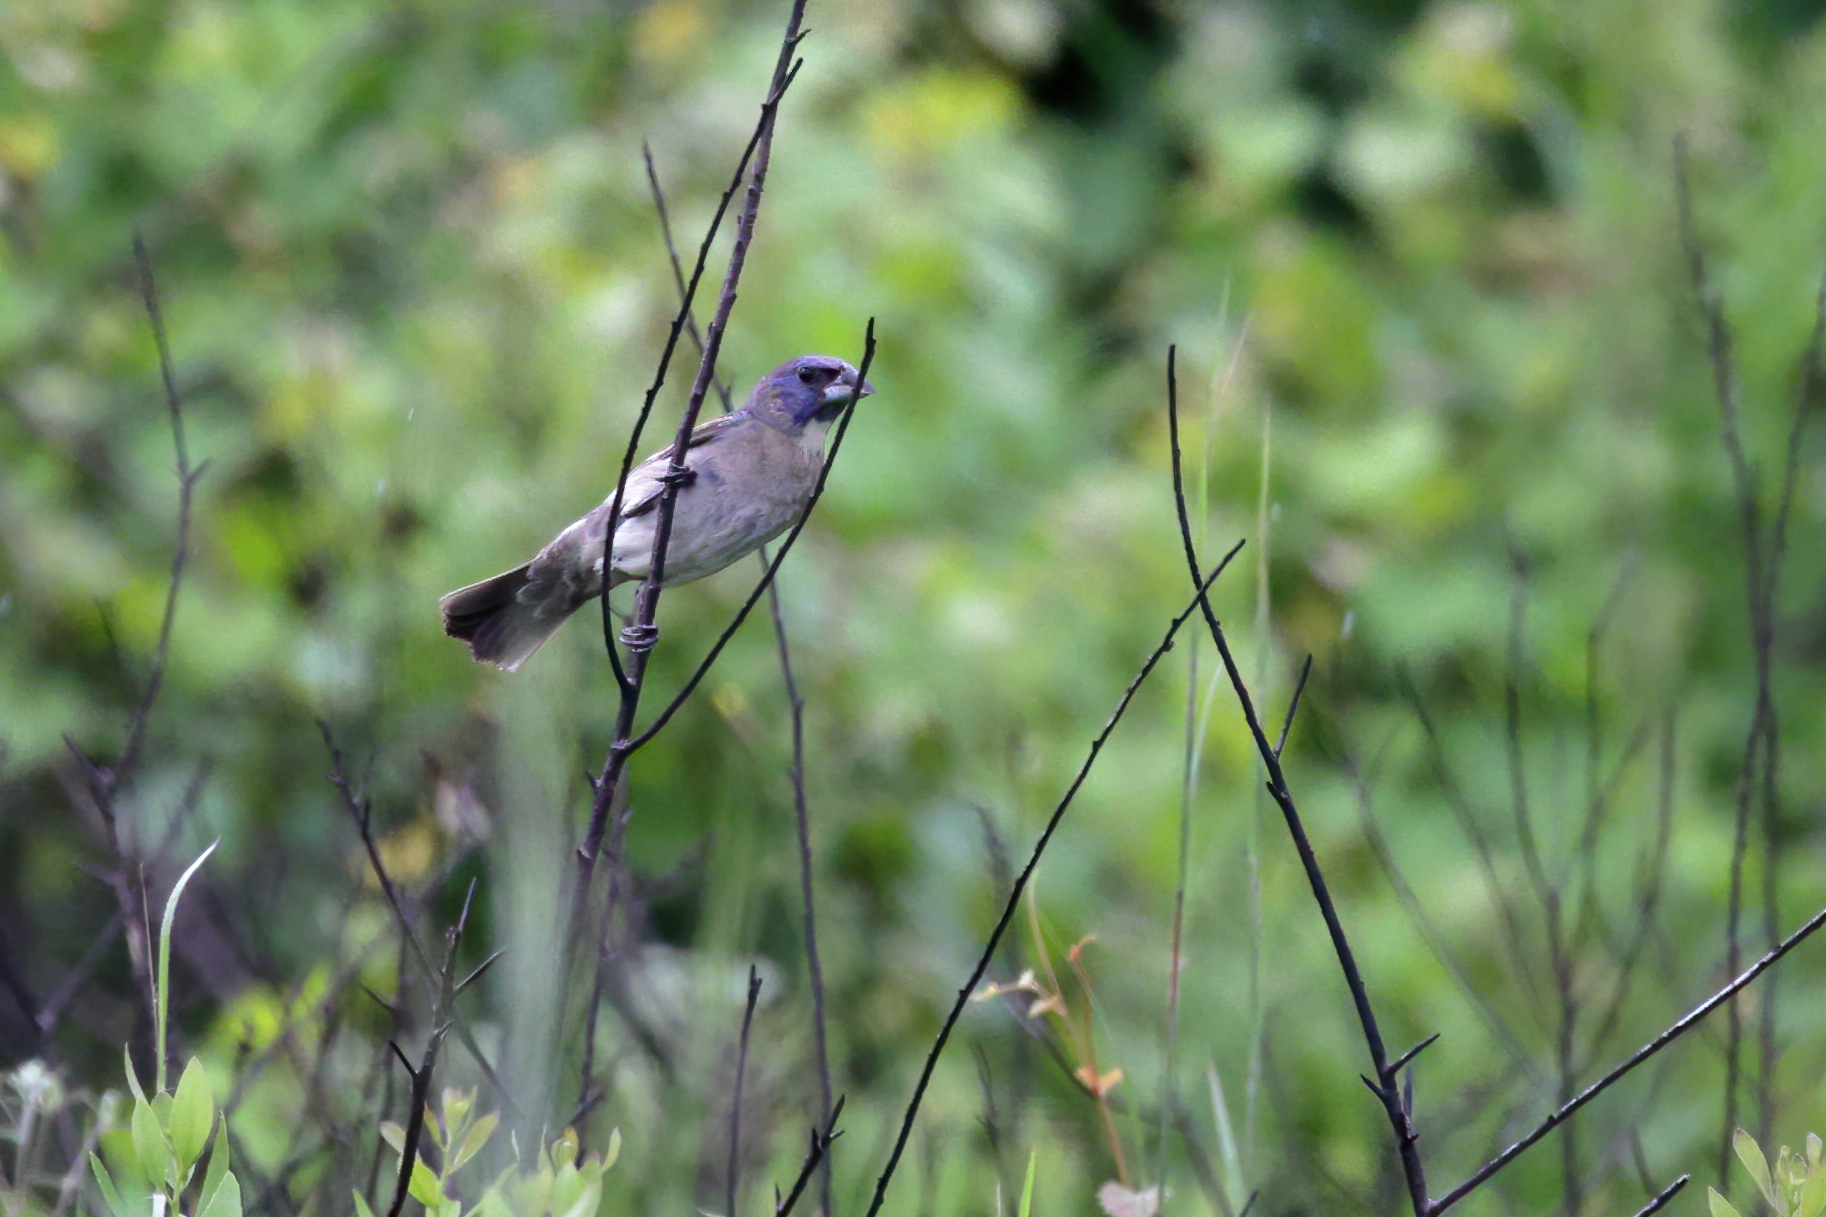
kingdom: Animalia
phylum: Chordata
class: Aves
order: Passeriformes
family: Cardinalidae
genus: Passerina
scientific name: Passerina caerulea
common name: Blue grosbeak
